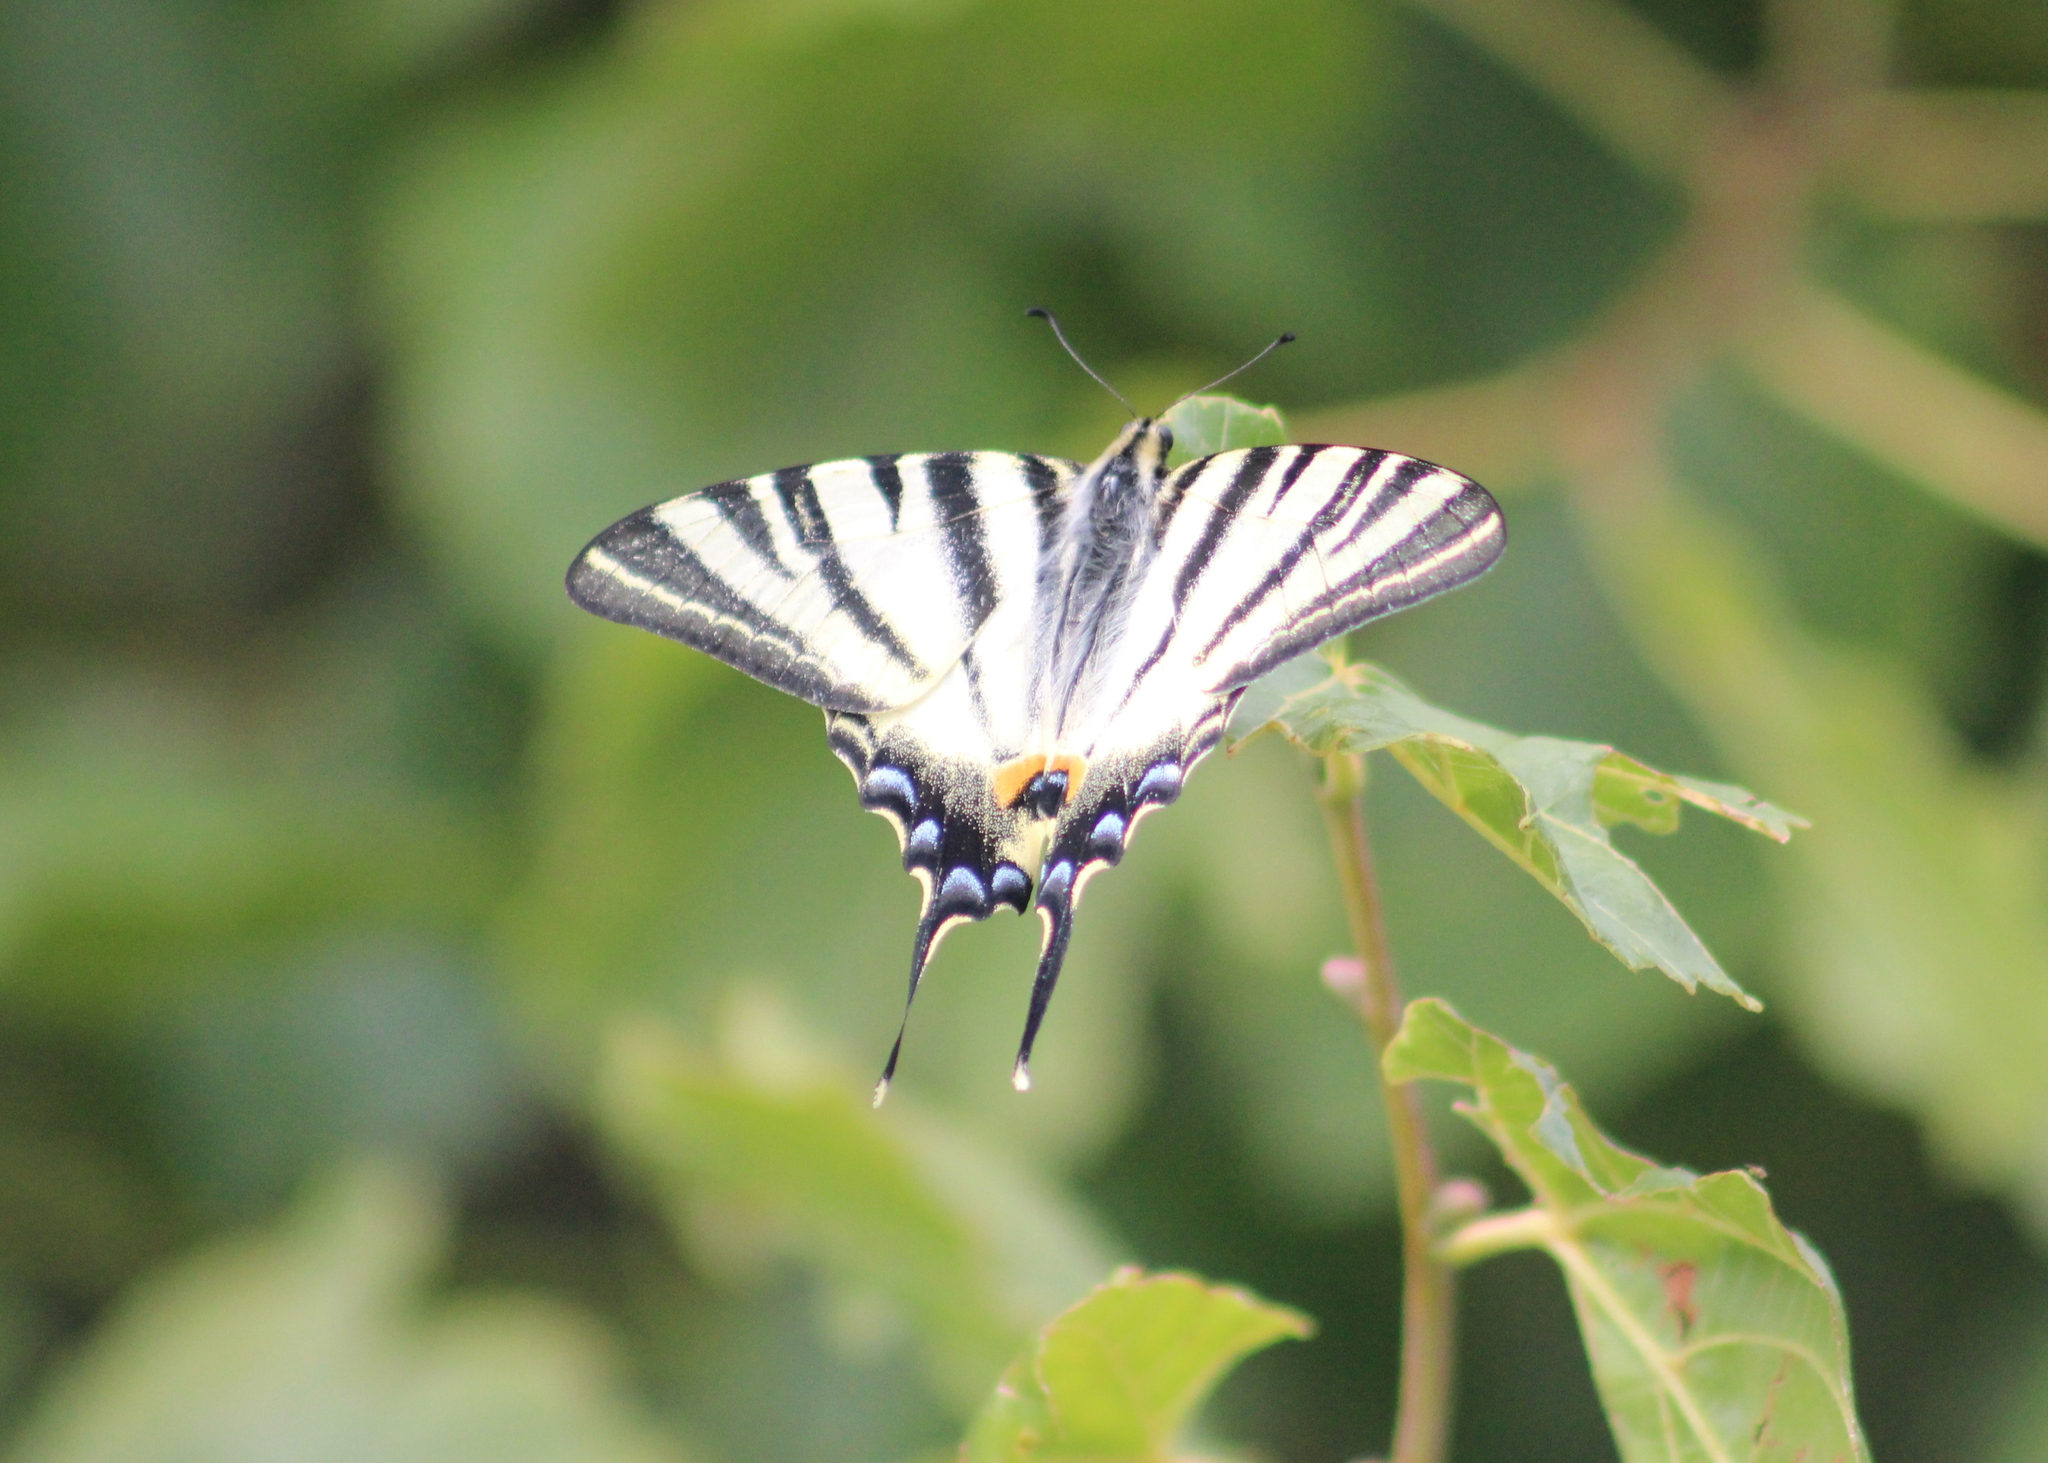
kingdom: Animalia
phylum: Arthropoda
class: Insecta
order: Lepidoptera
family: Papilionidae
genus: Iphiclides
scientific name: Iphiclides podalirius
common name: Scarce swallowtail
